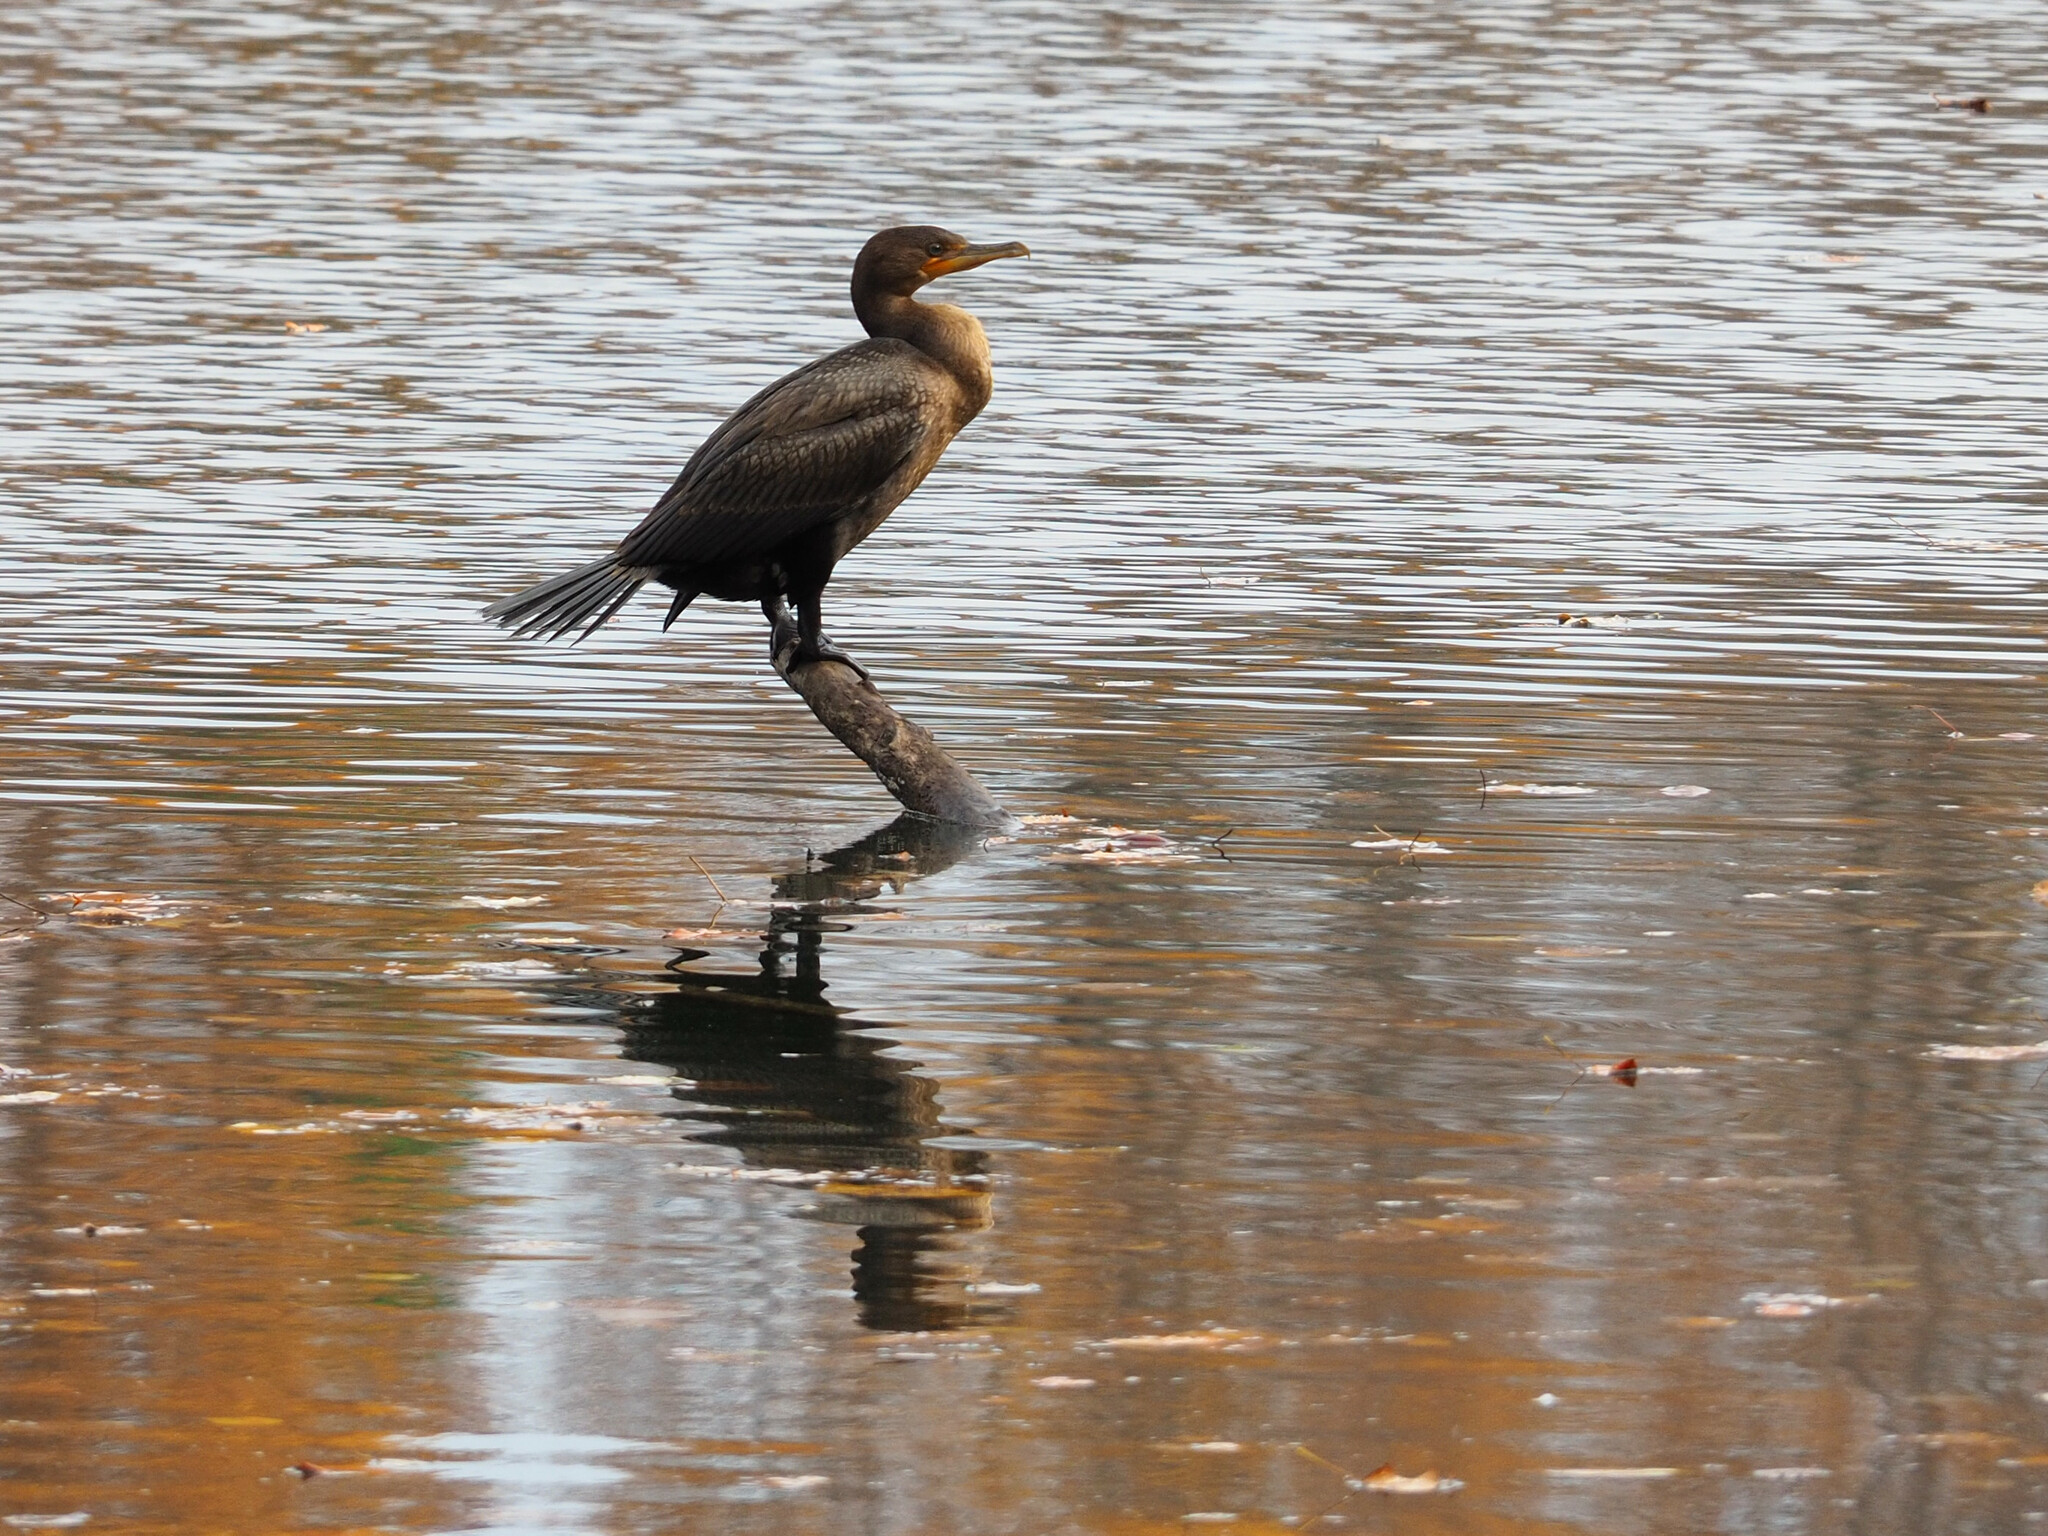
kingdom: Animalia
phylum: Chordata
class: Aves
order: Suliformes
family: Phalacrocoracidae
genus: Phalacrocorax
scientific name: Phalacrocorax auritus
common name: Double-crested cormorant
